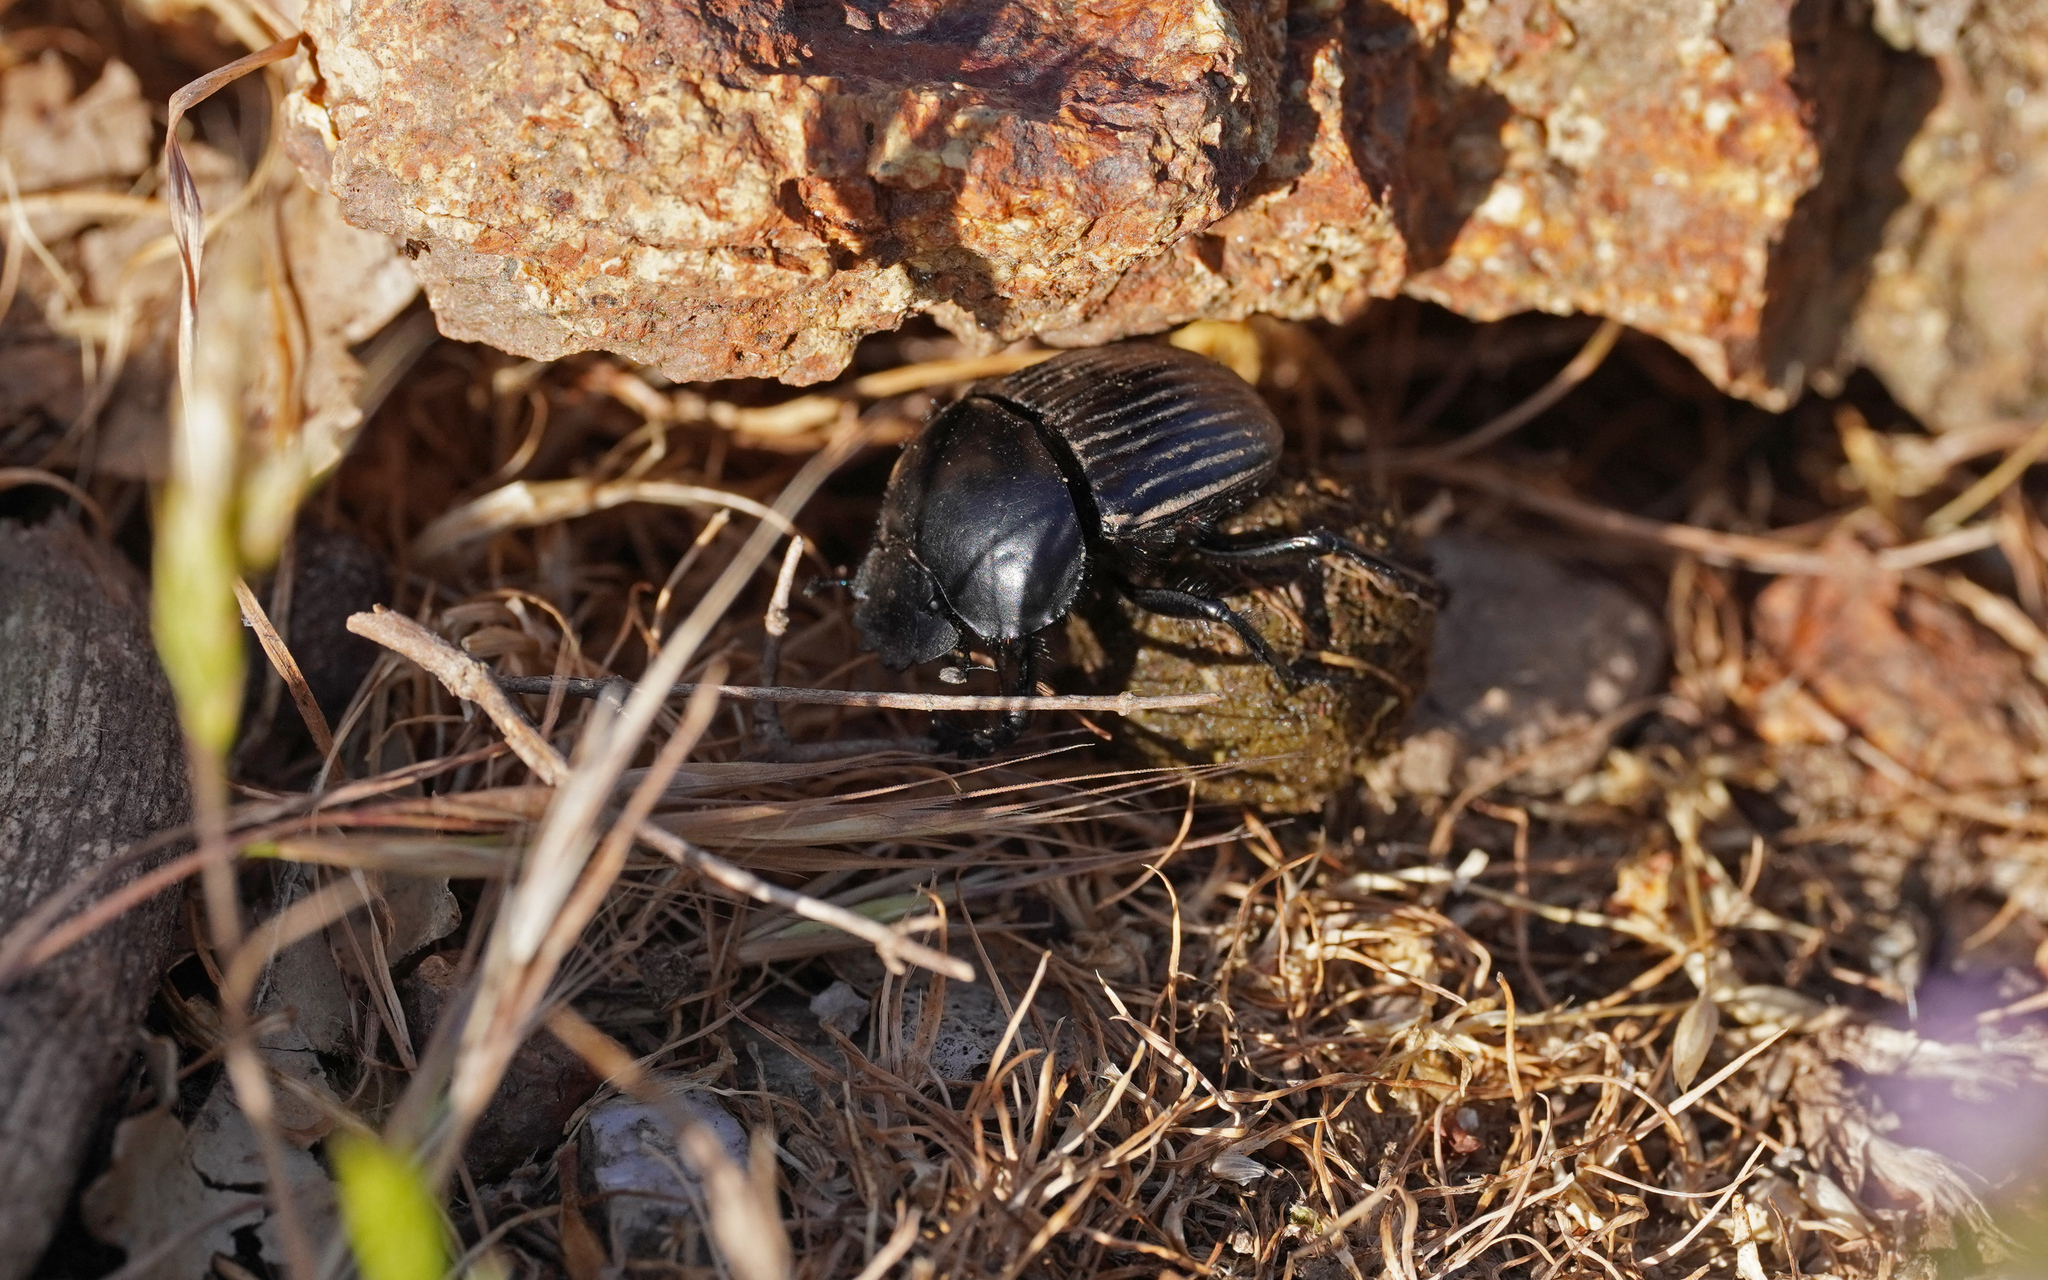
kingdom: Animalia
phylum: Arthropoda
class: Insecta
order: Coleoptera
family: Scarabaeidae
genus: Ateuchetus
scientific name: Ateuchetus laticollis
